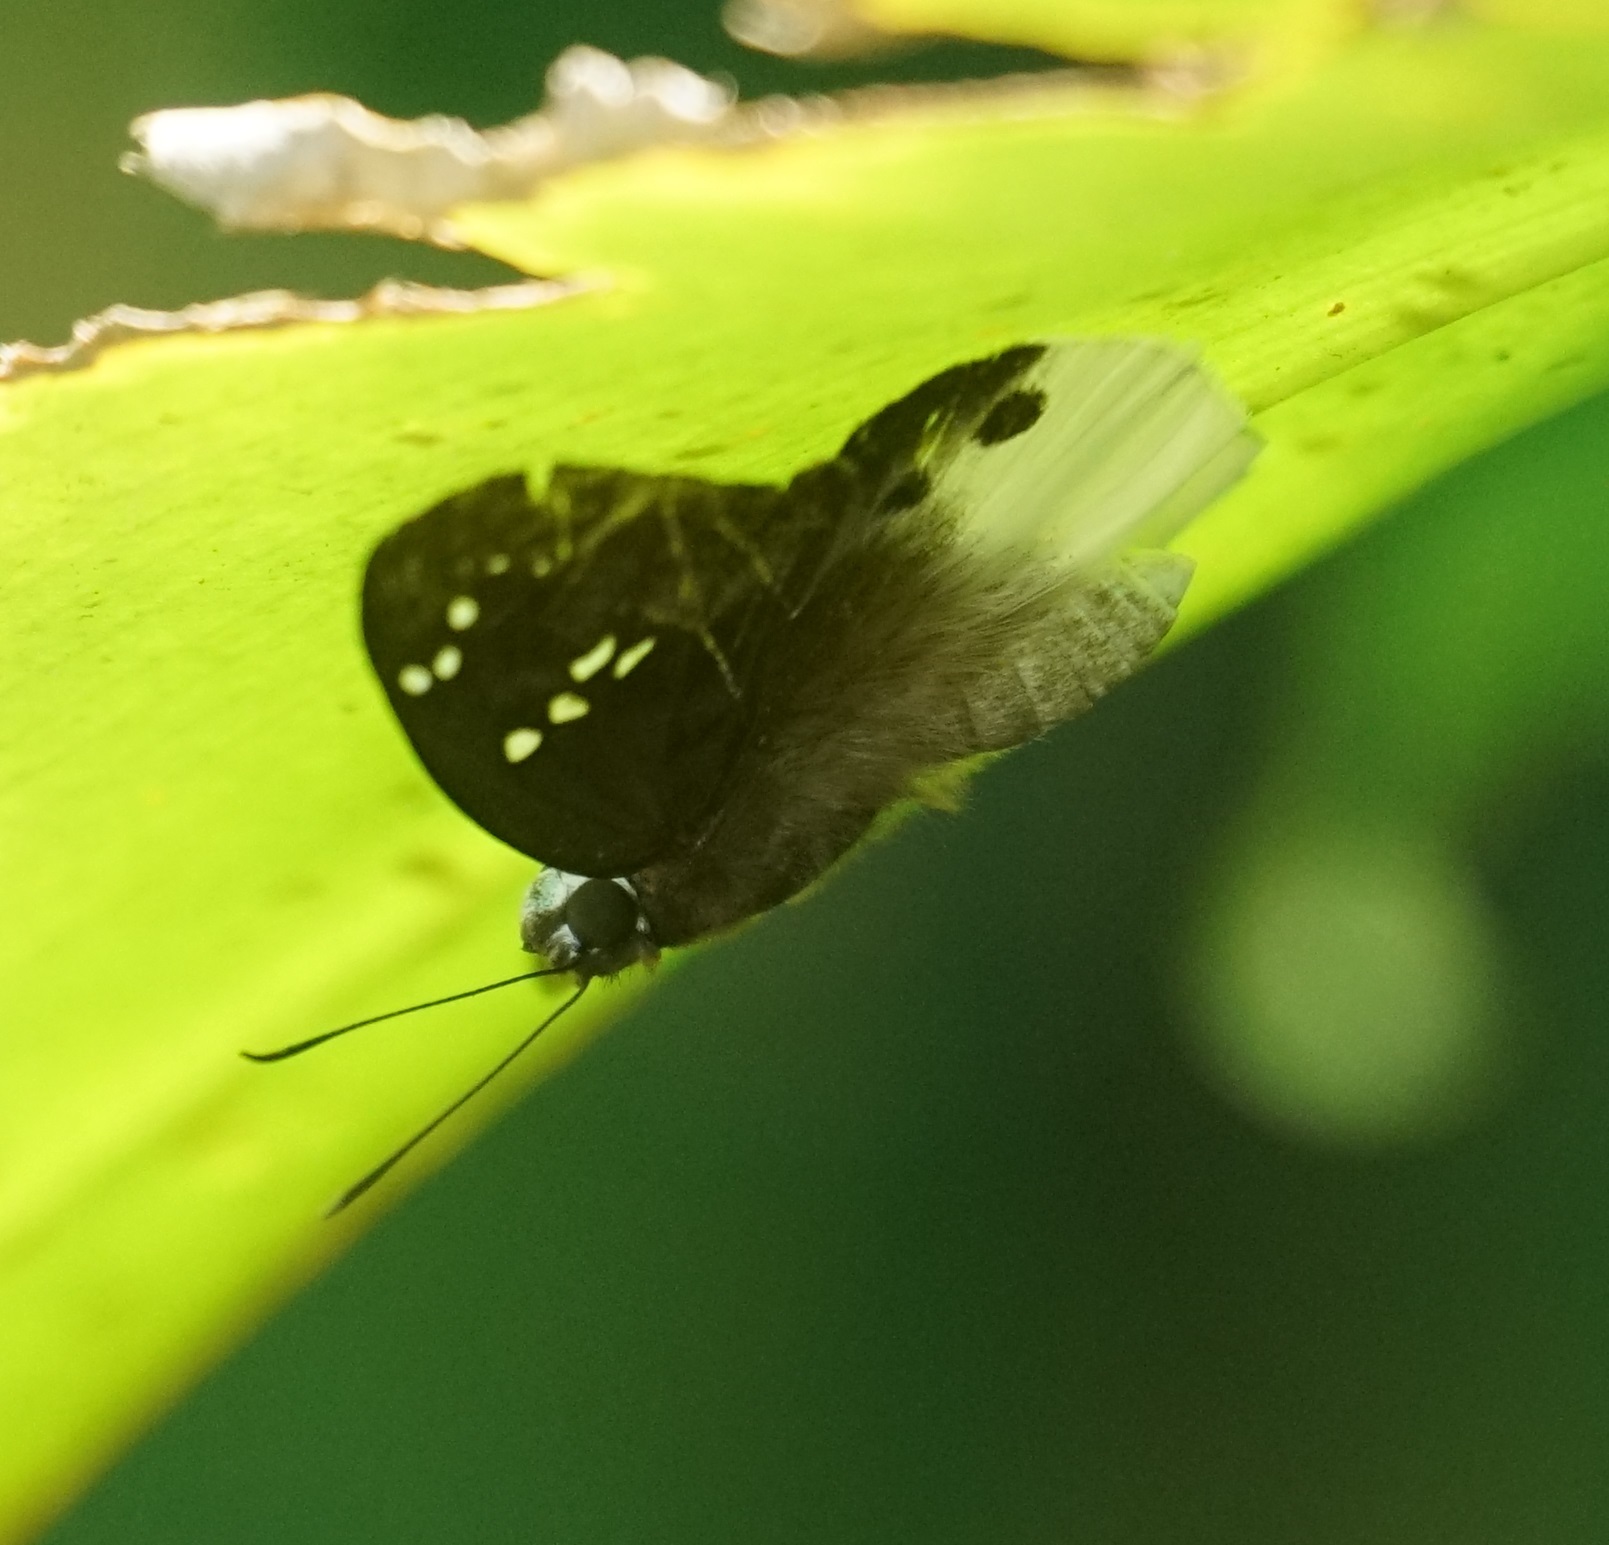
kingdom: Animalia
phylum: Arthropoda
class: Insecta
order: Lepidoptera
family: Hesperiidae
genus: Tagiades
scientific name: Tagiades japetus
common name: Pied flat
